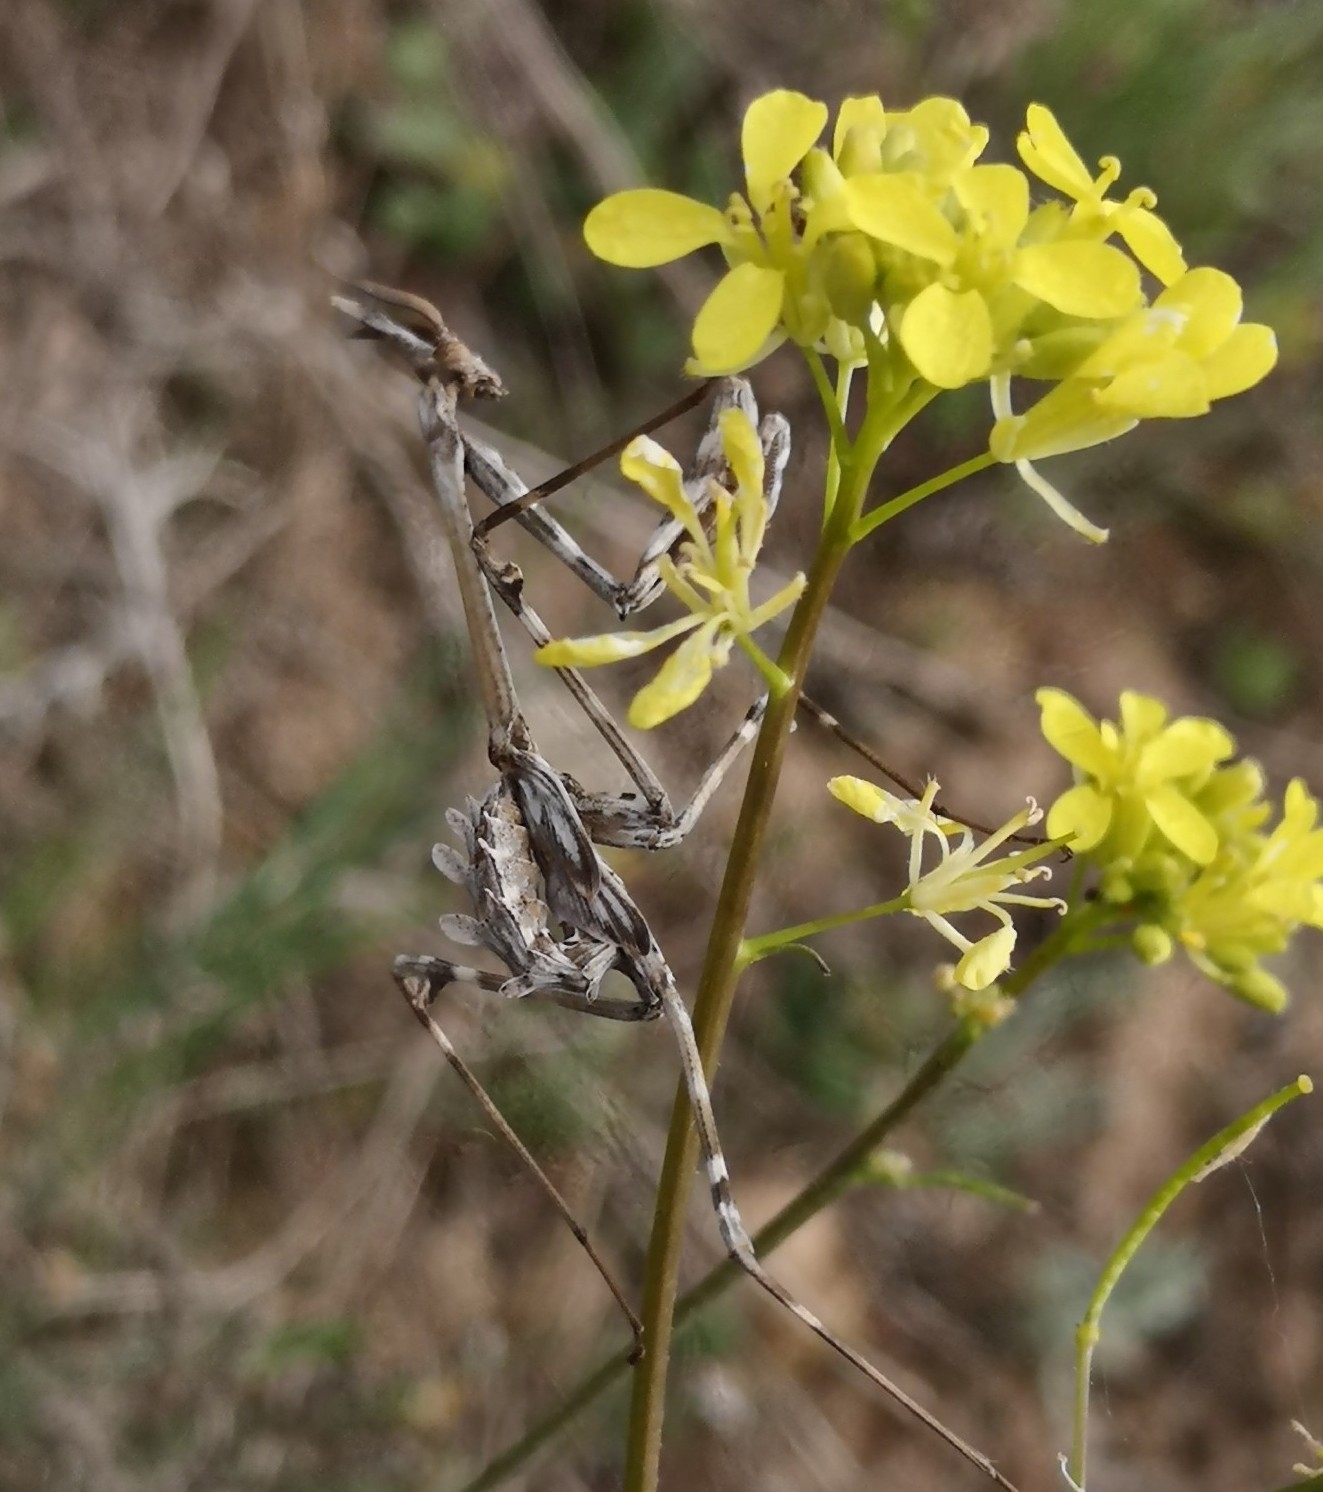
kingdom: Animalia
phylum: Arthropoda
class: Insecta
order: Mantodea
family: Empusidae
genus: Empusa
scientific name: Empusa pennata
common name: Conehead mantis
